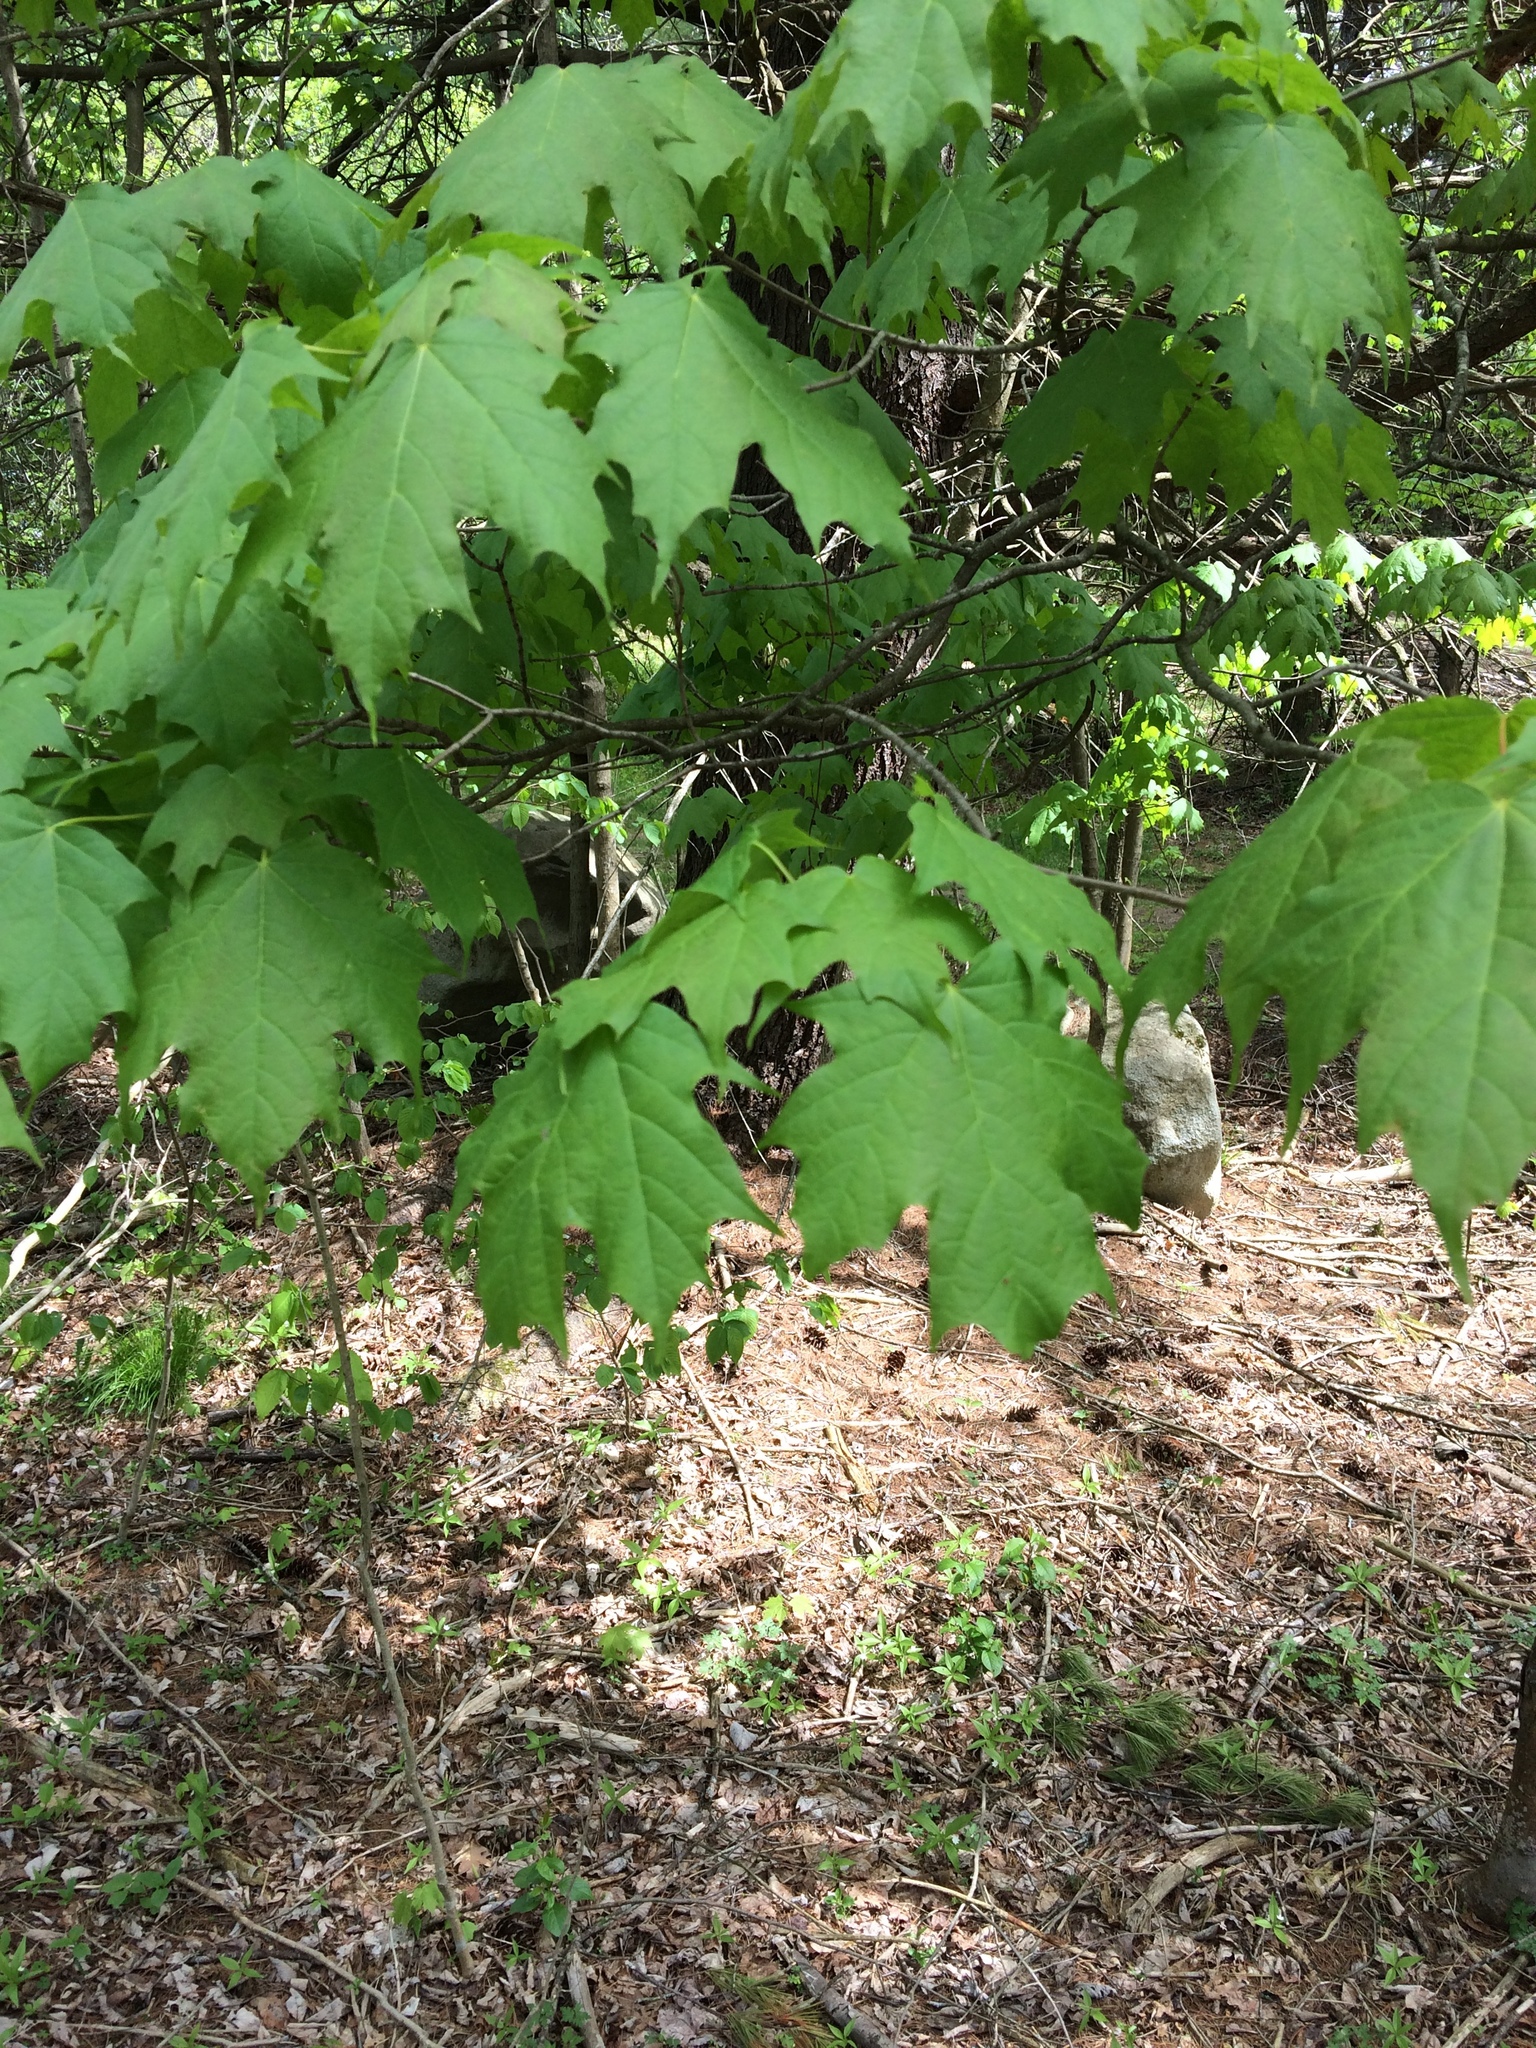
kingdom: Plantae
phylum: Tracheophyta
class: Magnoliopsida
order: Sapindales
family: Sapindaceae
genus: Acer
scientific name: Acer saccharum
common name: Sugar maple
